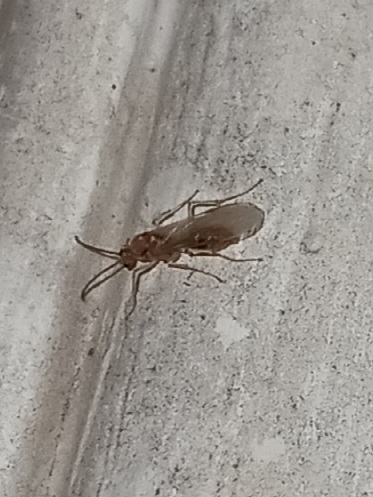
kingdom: Animalia
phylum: Arthropoda
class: Insecta
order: Hymenoptera
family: Formicidae
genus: Pachycondyla
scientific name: Pachycondyla chinensis
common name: Asian needle ant
